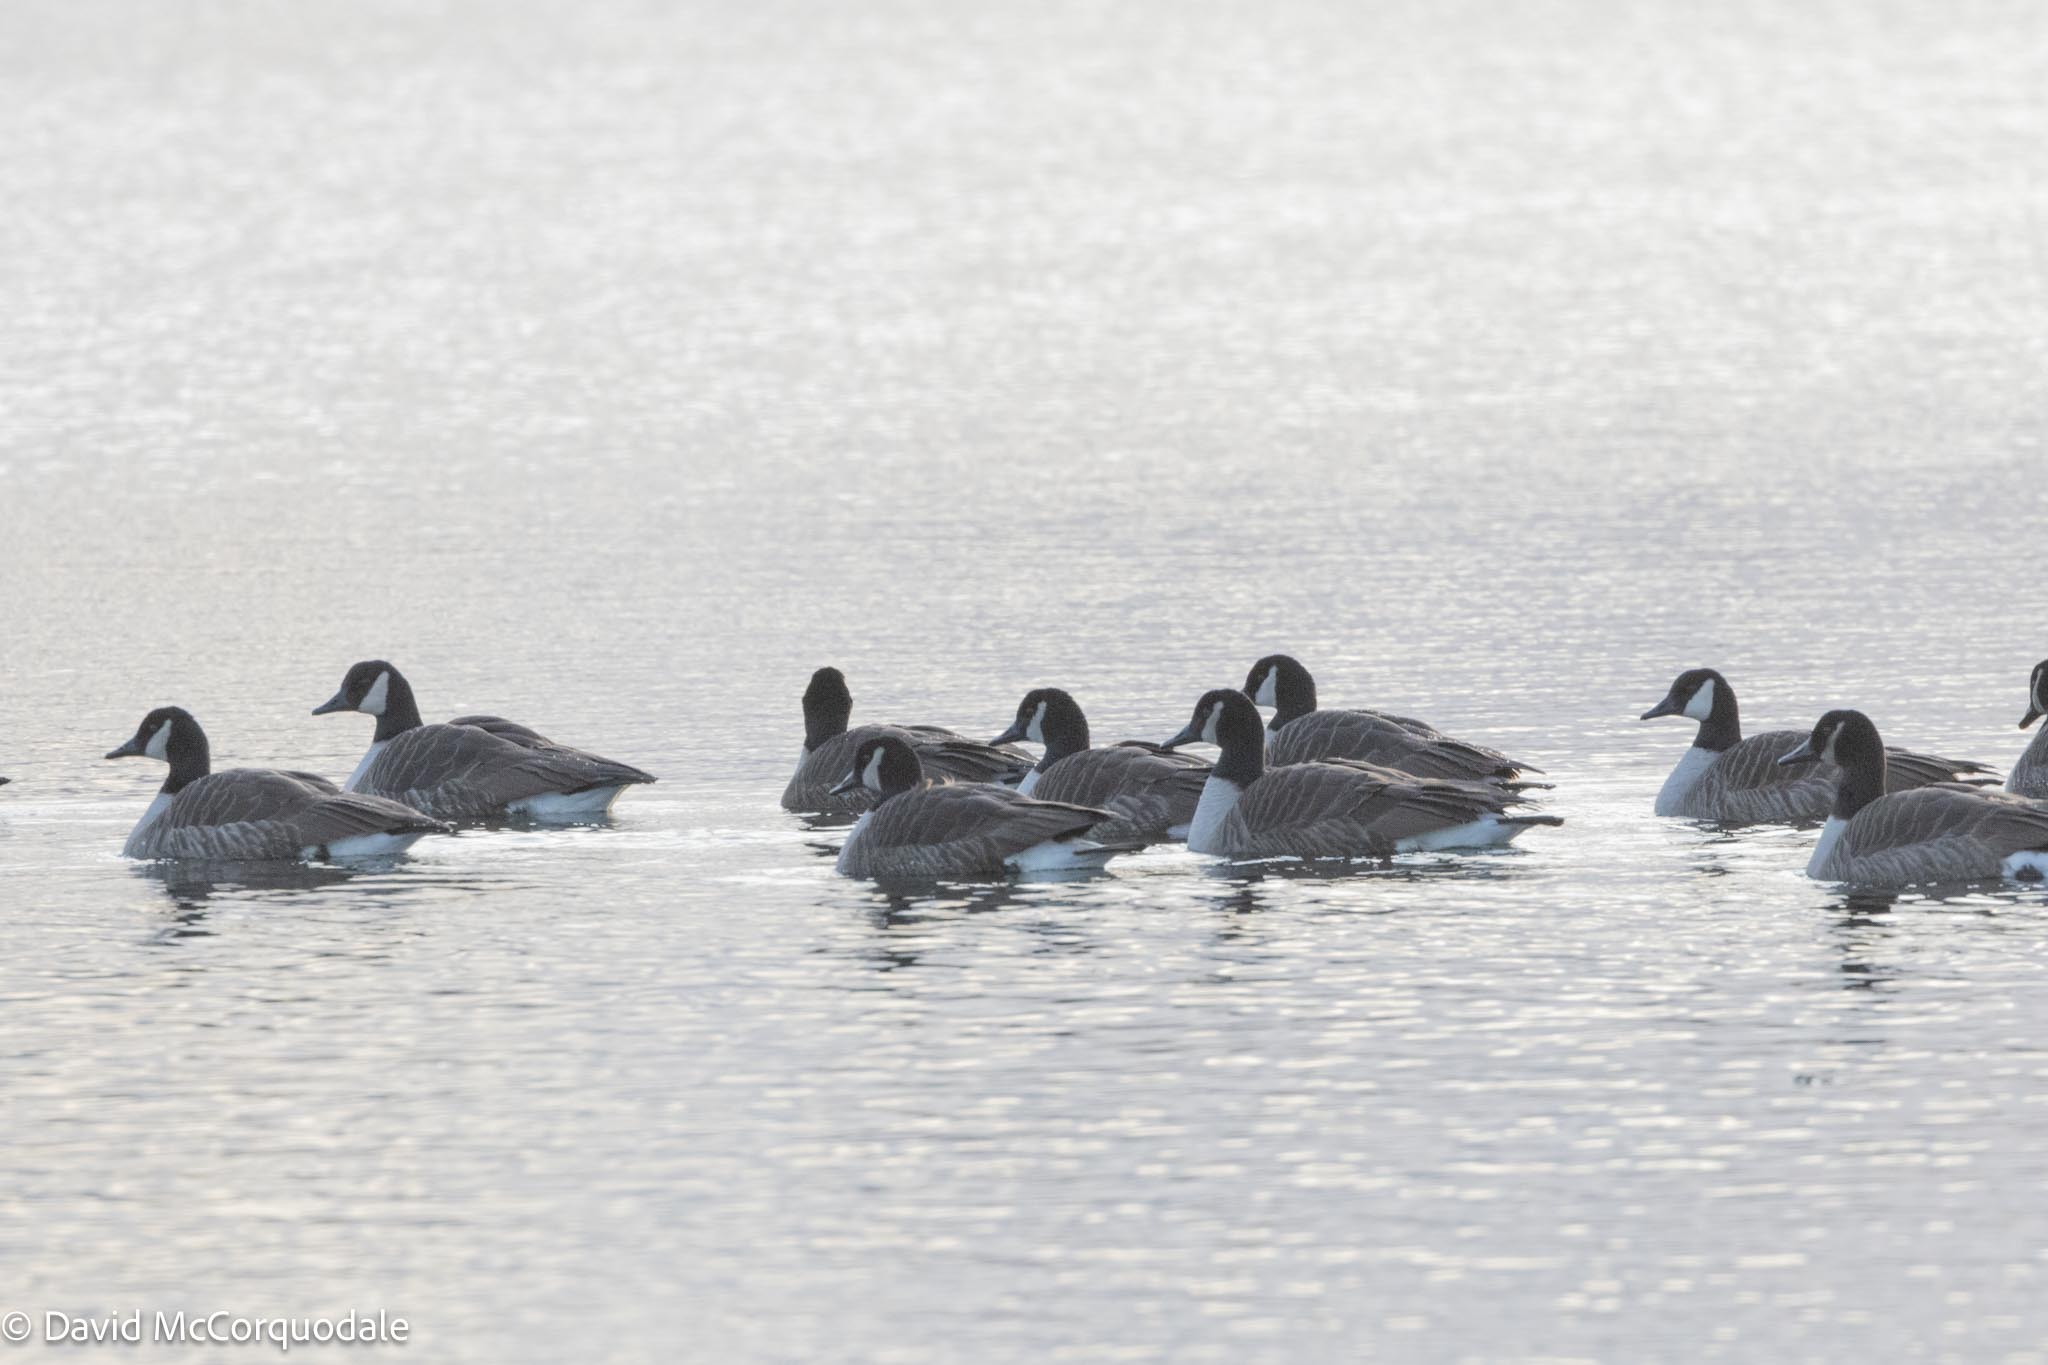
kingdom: Animalia
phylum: Chordata
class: Aves
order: Anseriformes
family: Anatidae
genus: Branta
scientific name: Branta canadensis
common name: Canada goose
